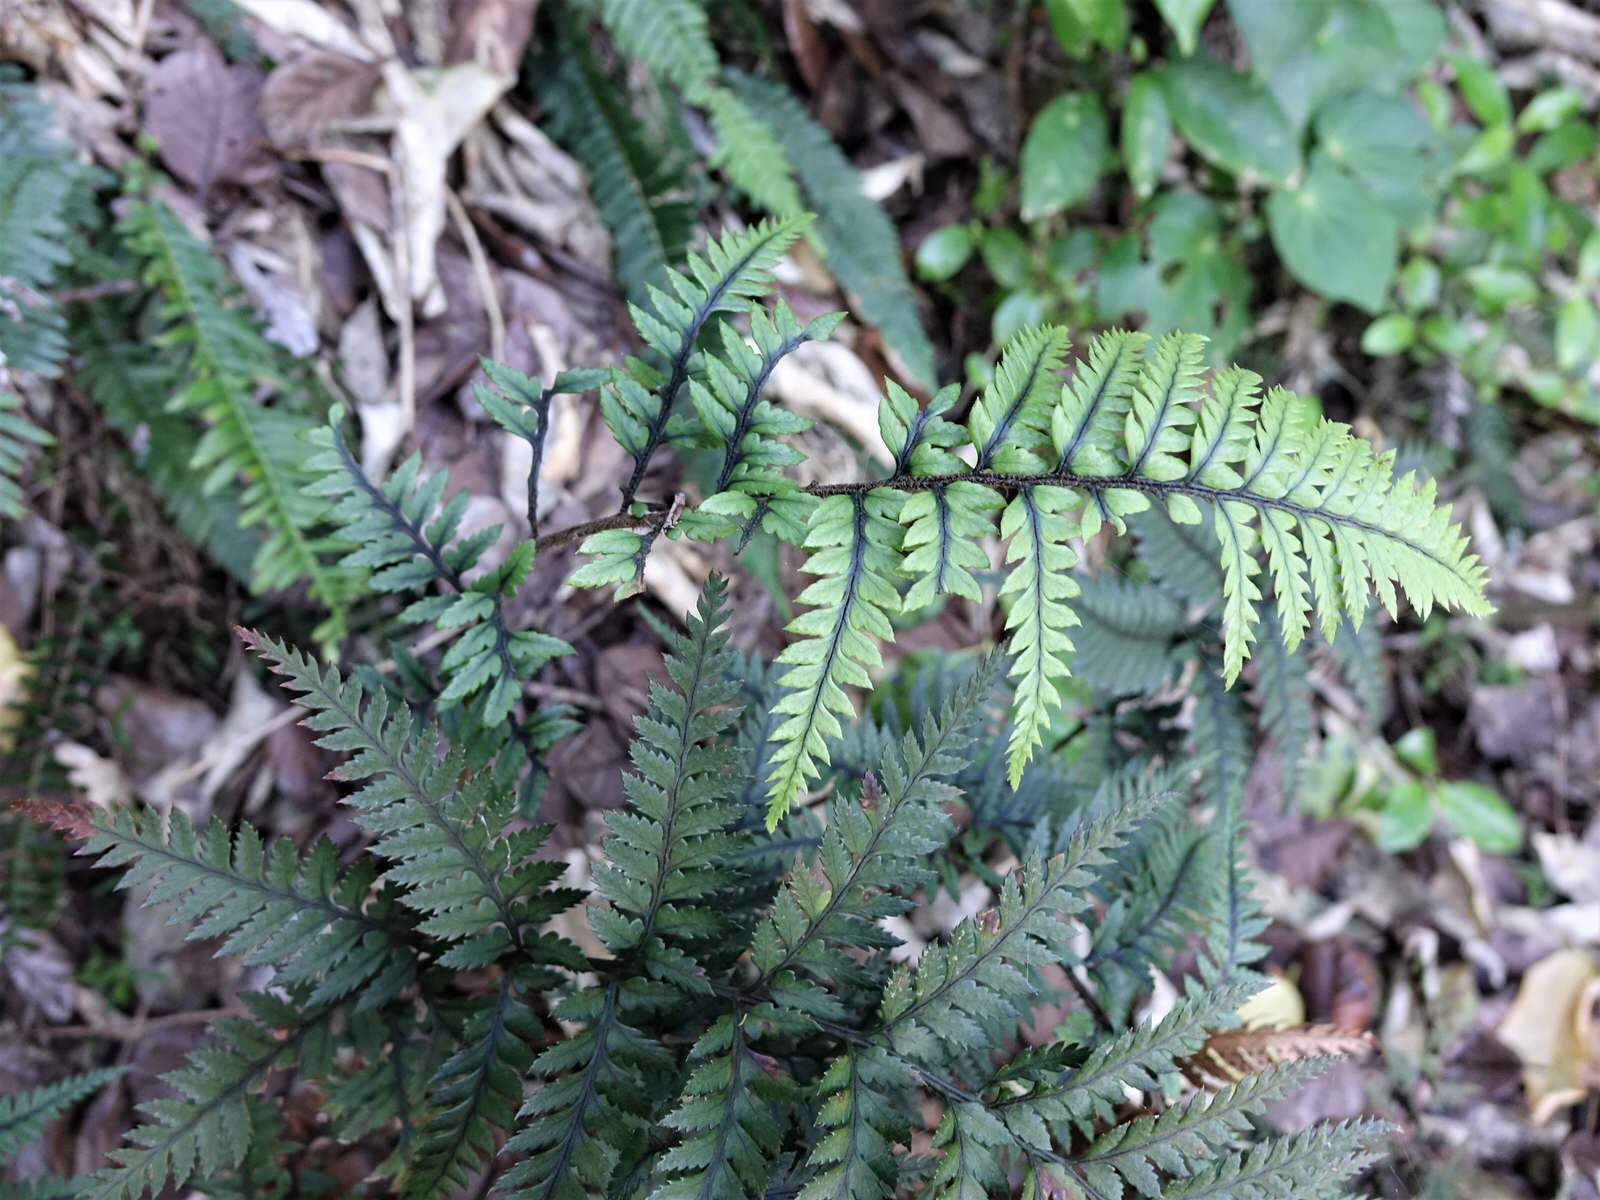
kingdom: Plantae
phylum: Tracheophyta
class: Polypodiopsida
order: Polypodiales
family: Dryopteridaceae
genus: Polystichum
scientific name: Polystichum neozelandicum
